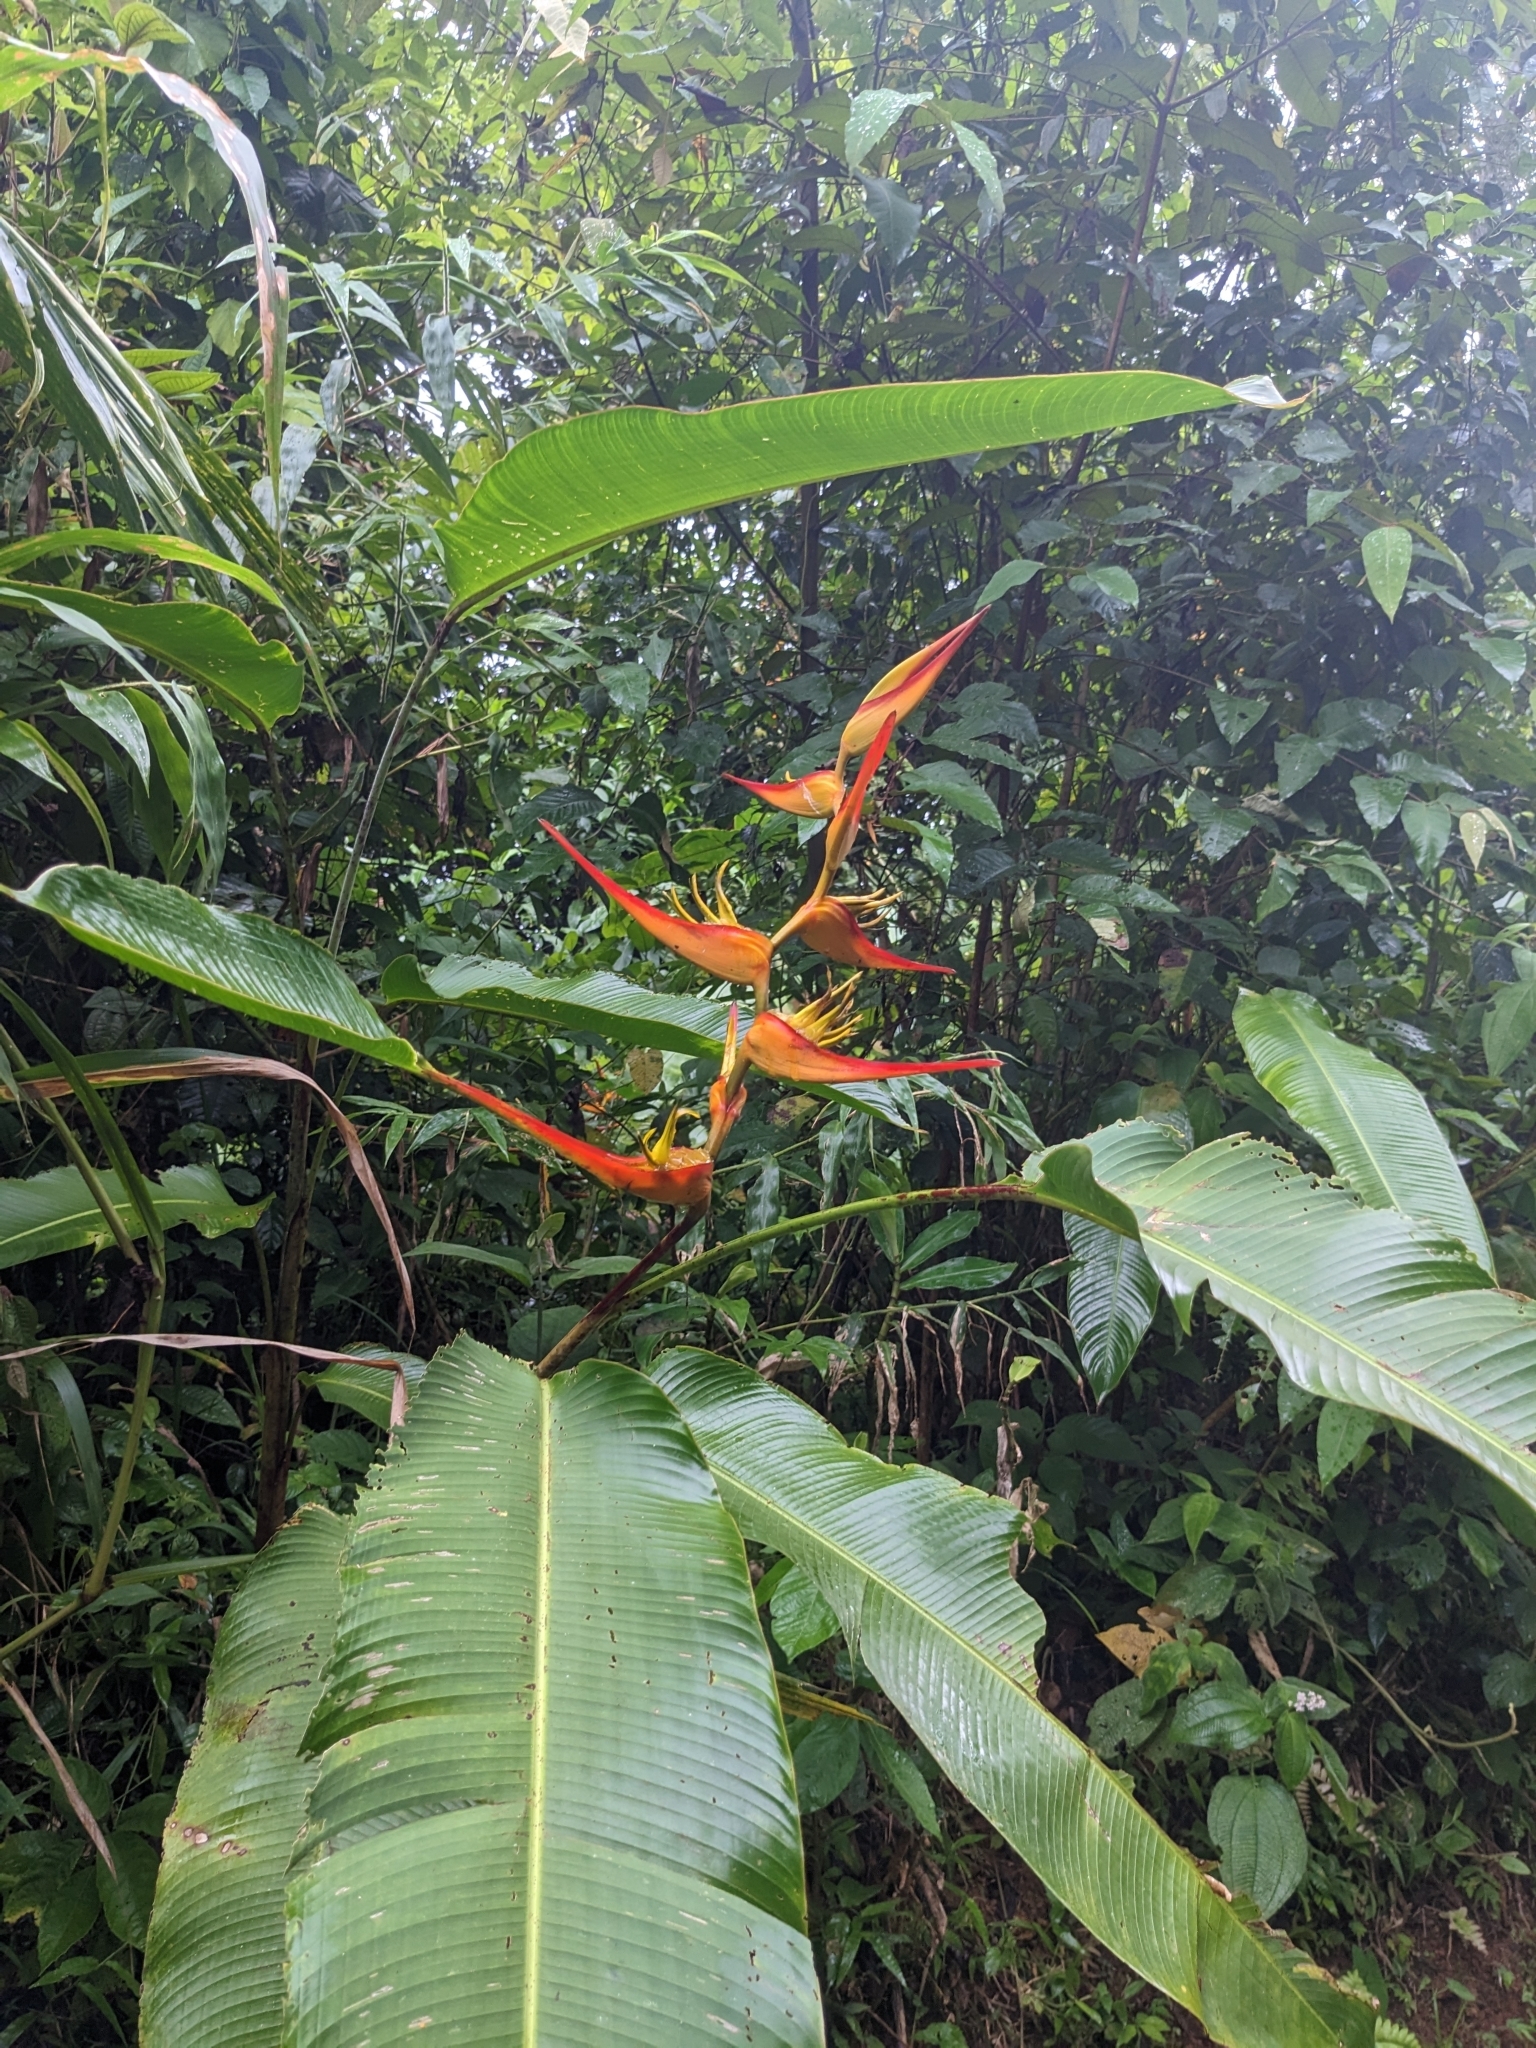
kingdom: Plantae
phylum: Tracheophyta
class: Liliopsida
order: Zingiberales
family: Heliconiaceae
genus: Heliconia
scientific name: Heliconia latispatha
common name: Expanded lobsterclaw
